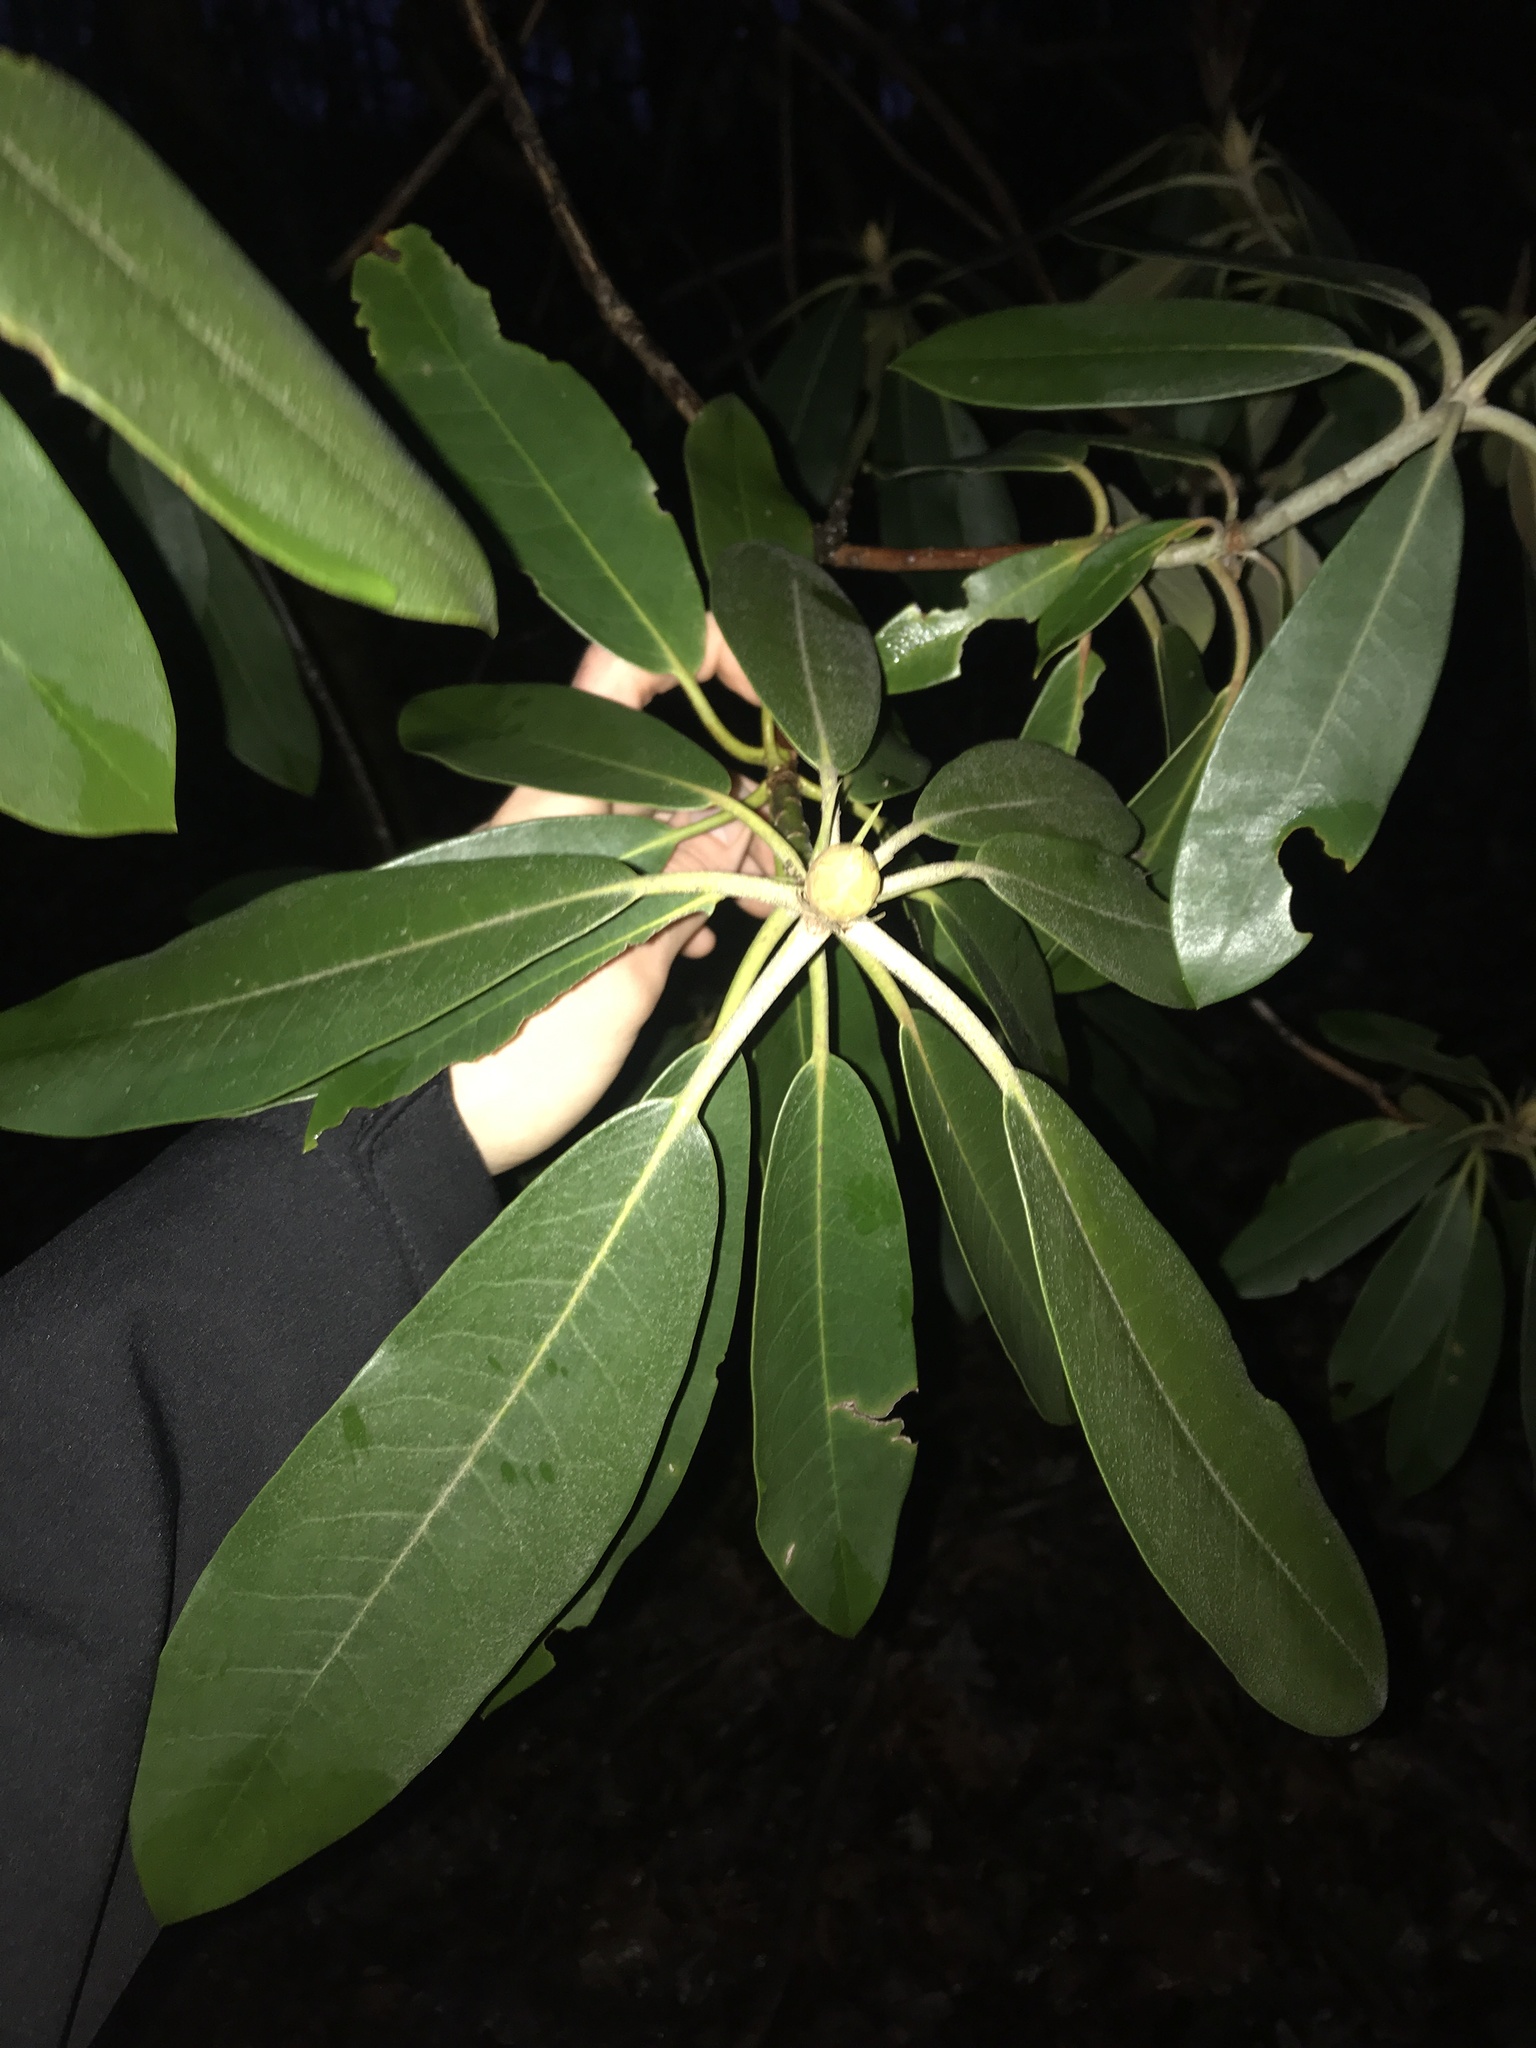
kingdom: Plantae
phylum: Tracheophyta
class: Magnoliopsida
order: Ericales
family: Ericaceae
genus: Rhododendron
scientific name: Rhododendron maximum
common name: Great rhododendron
